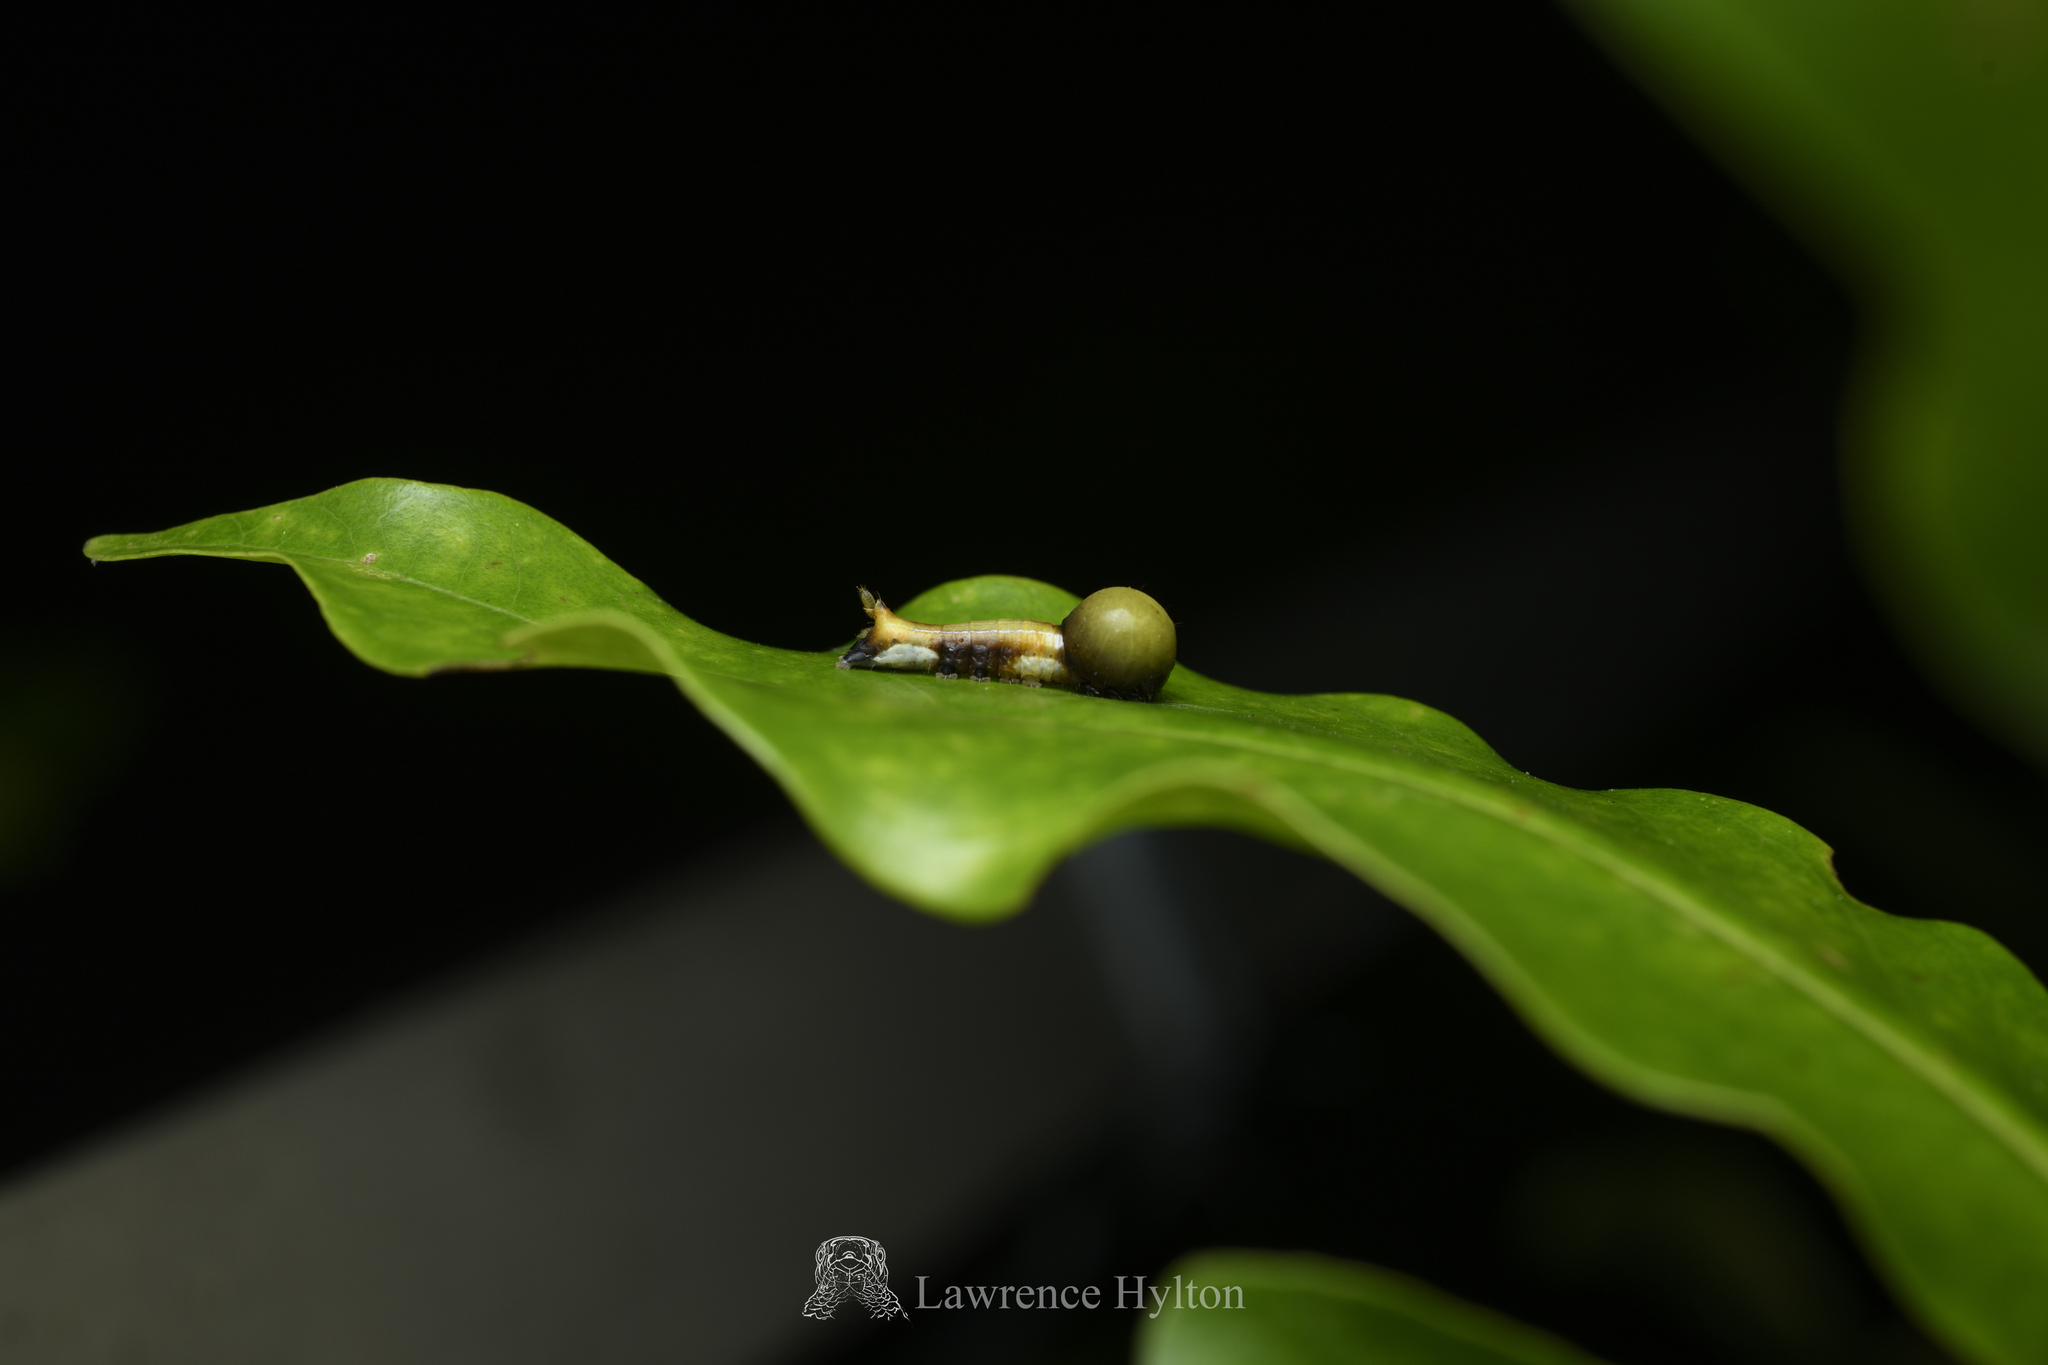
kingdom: Animalia
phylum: Arthropoda
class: Insecta
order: Lepidoptera
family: Nolidae
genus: Carea
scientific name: Carea angulata
